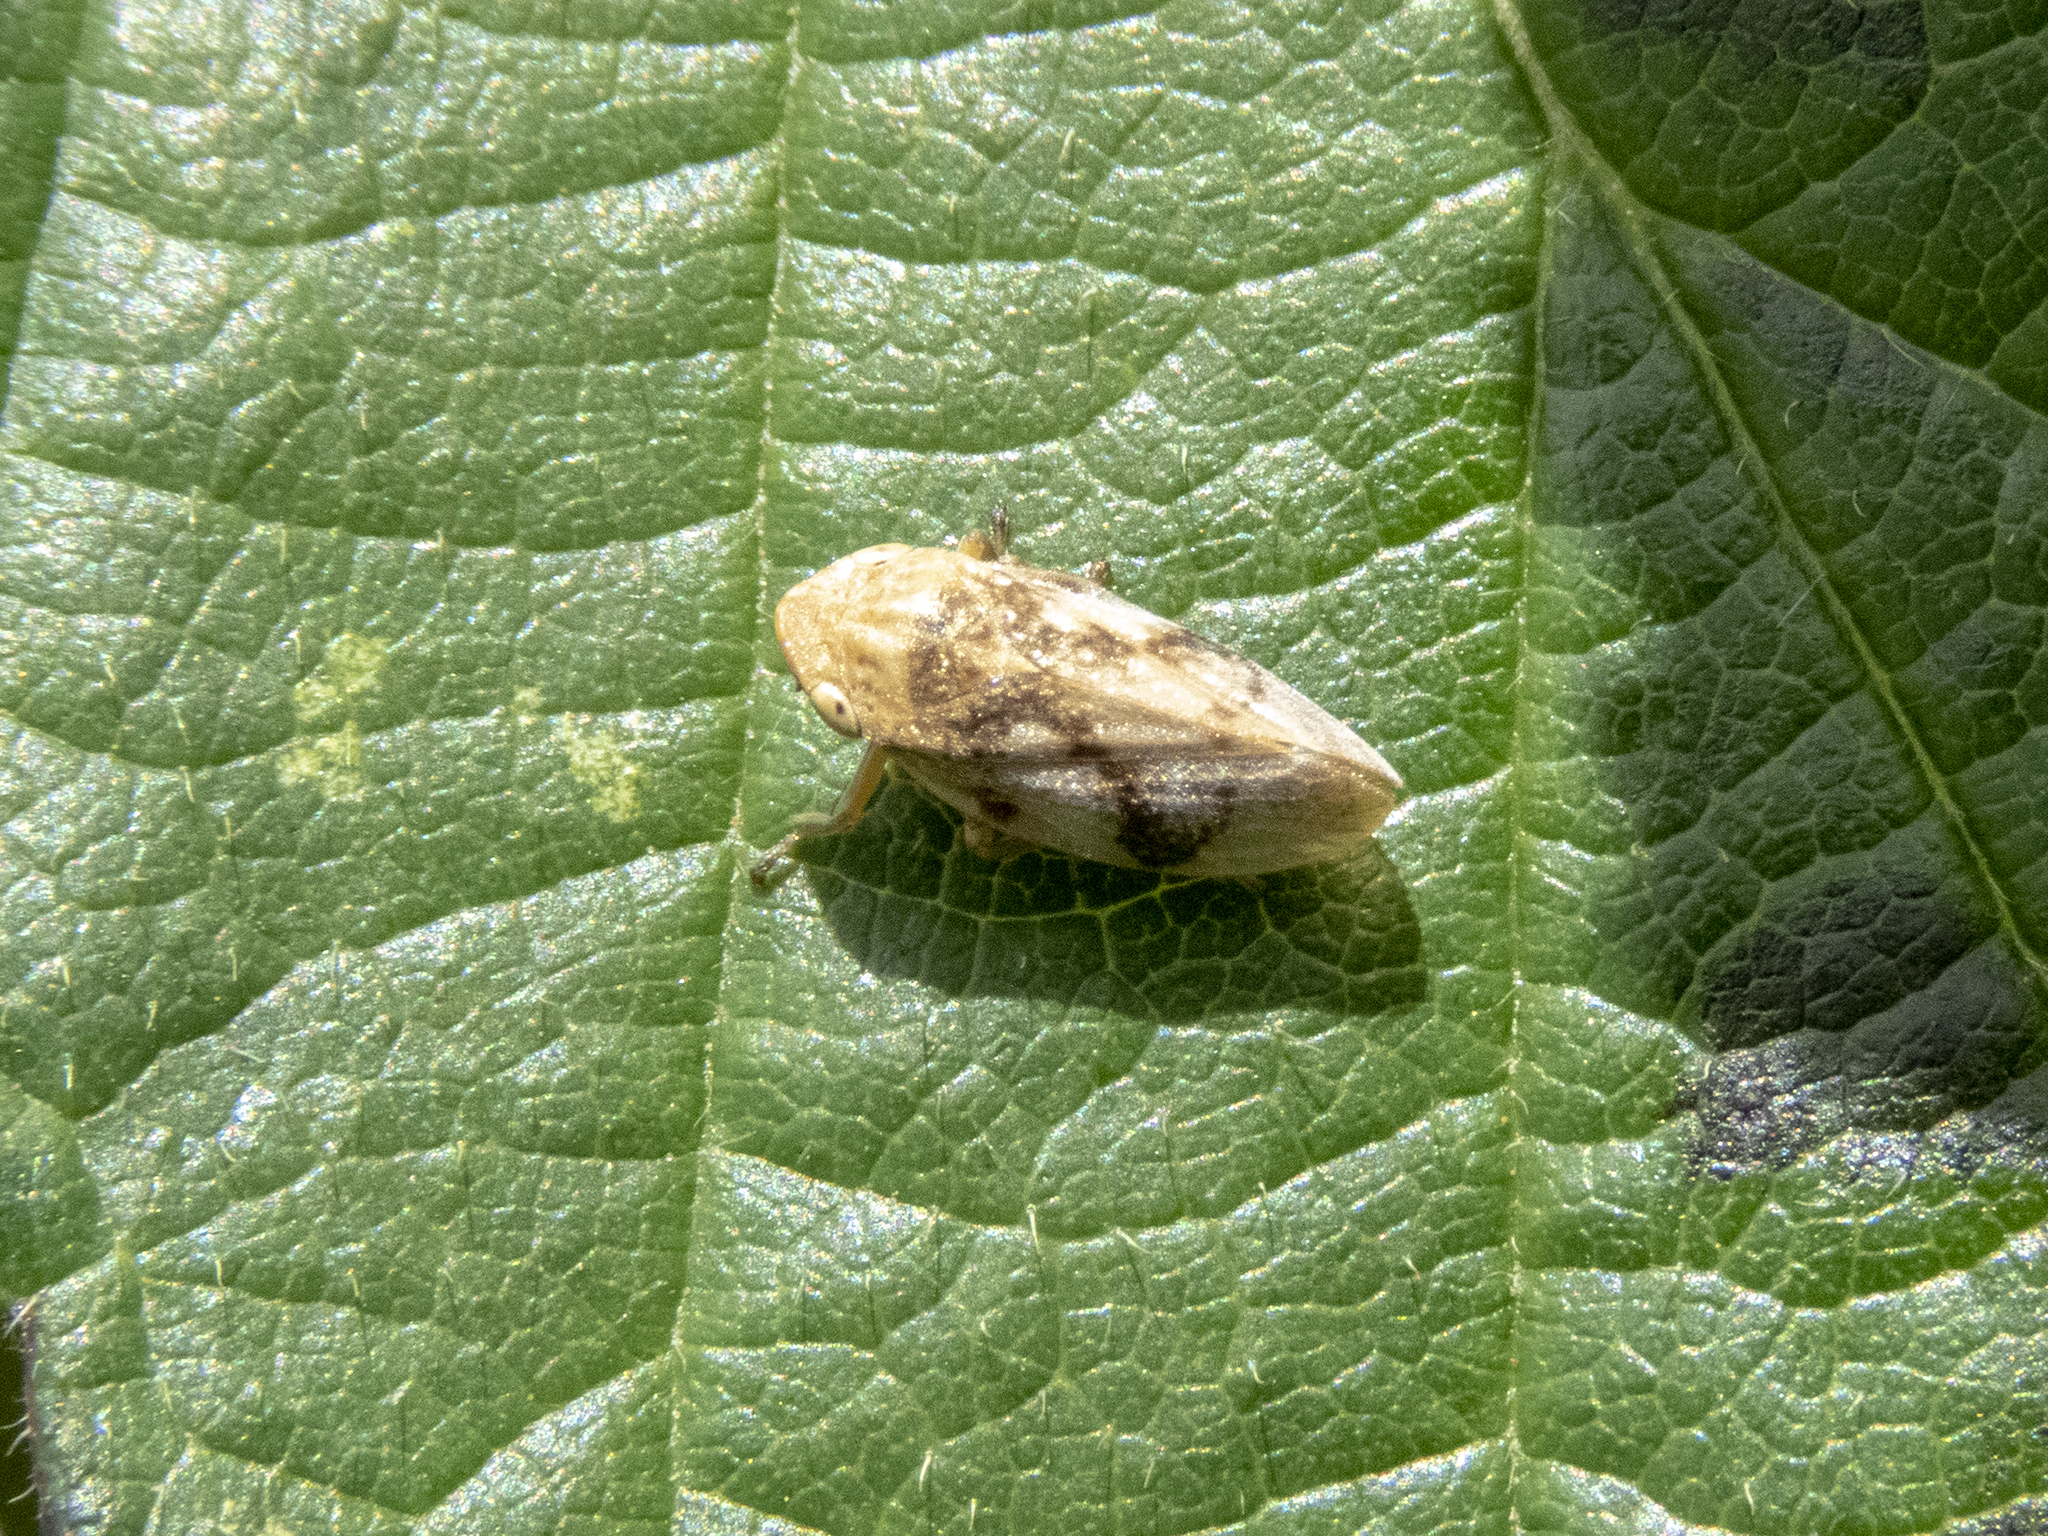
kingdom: Animalia
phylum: Arthropoda
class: Insecta
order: Hemiptera
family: Aphrophoridae
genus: Philaenus
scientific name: Philaenus spumarius
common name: Meadow spittlebug
